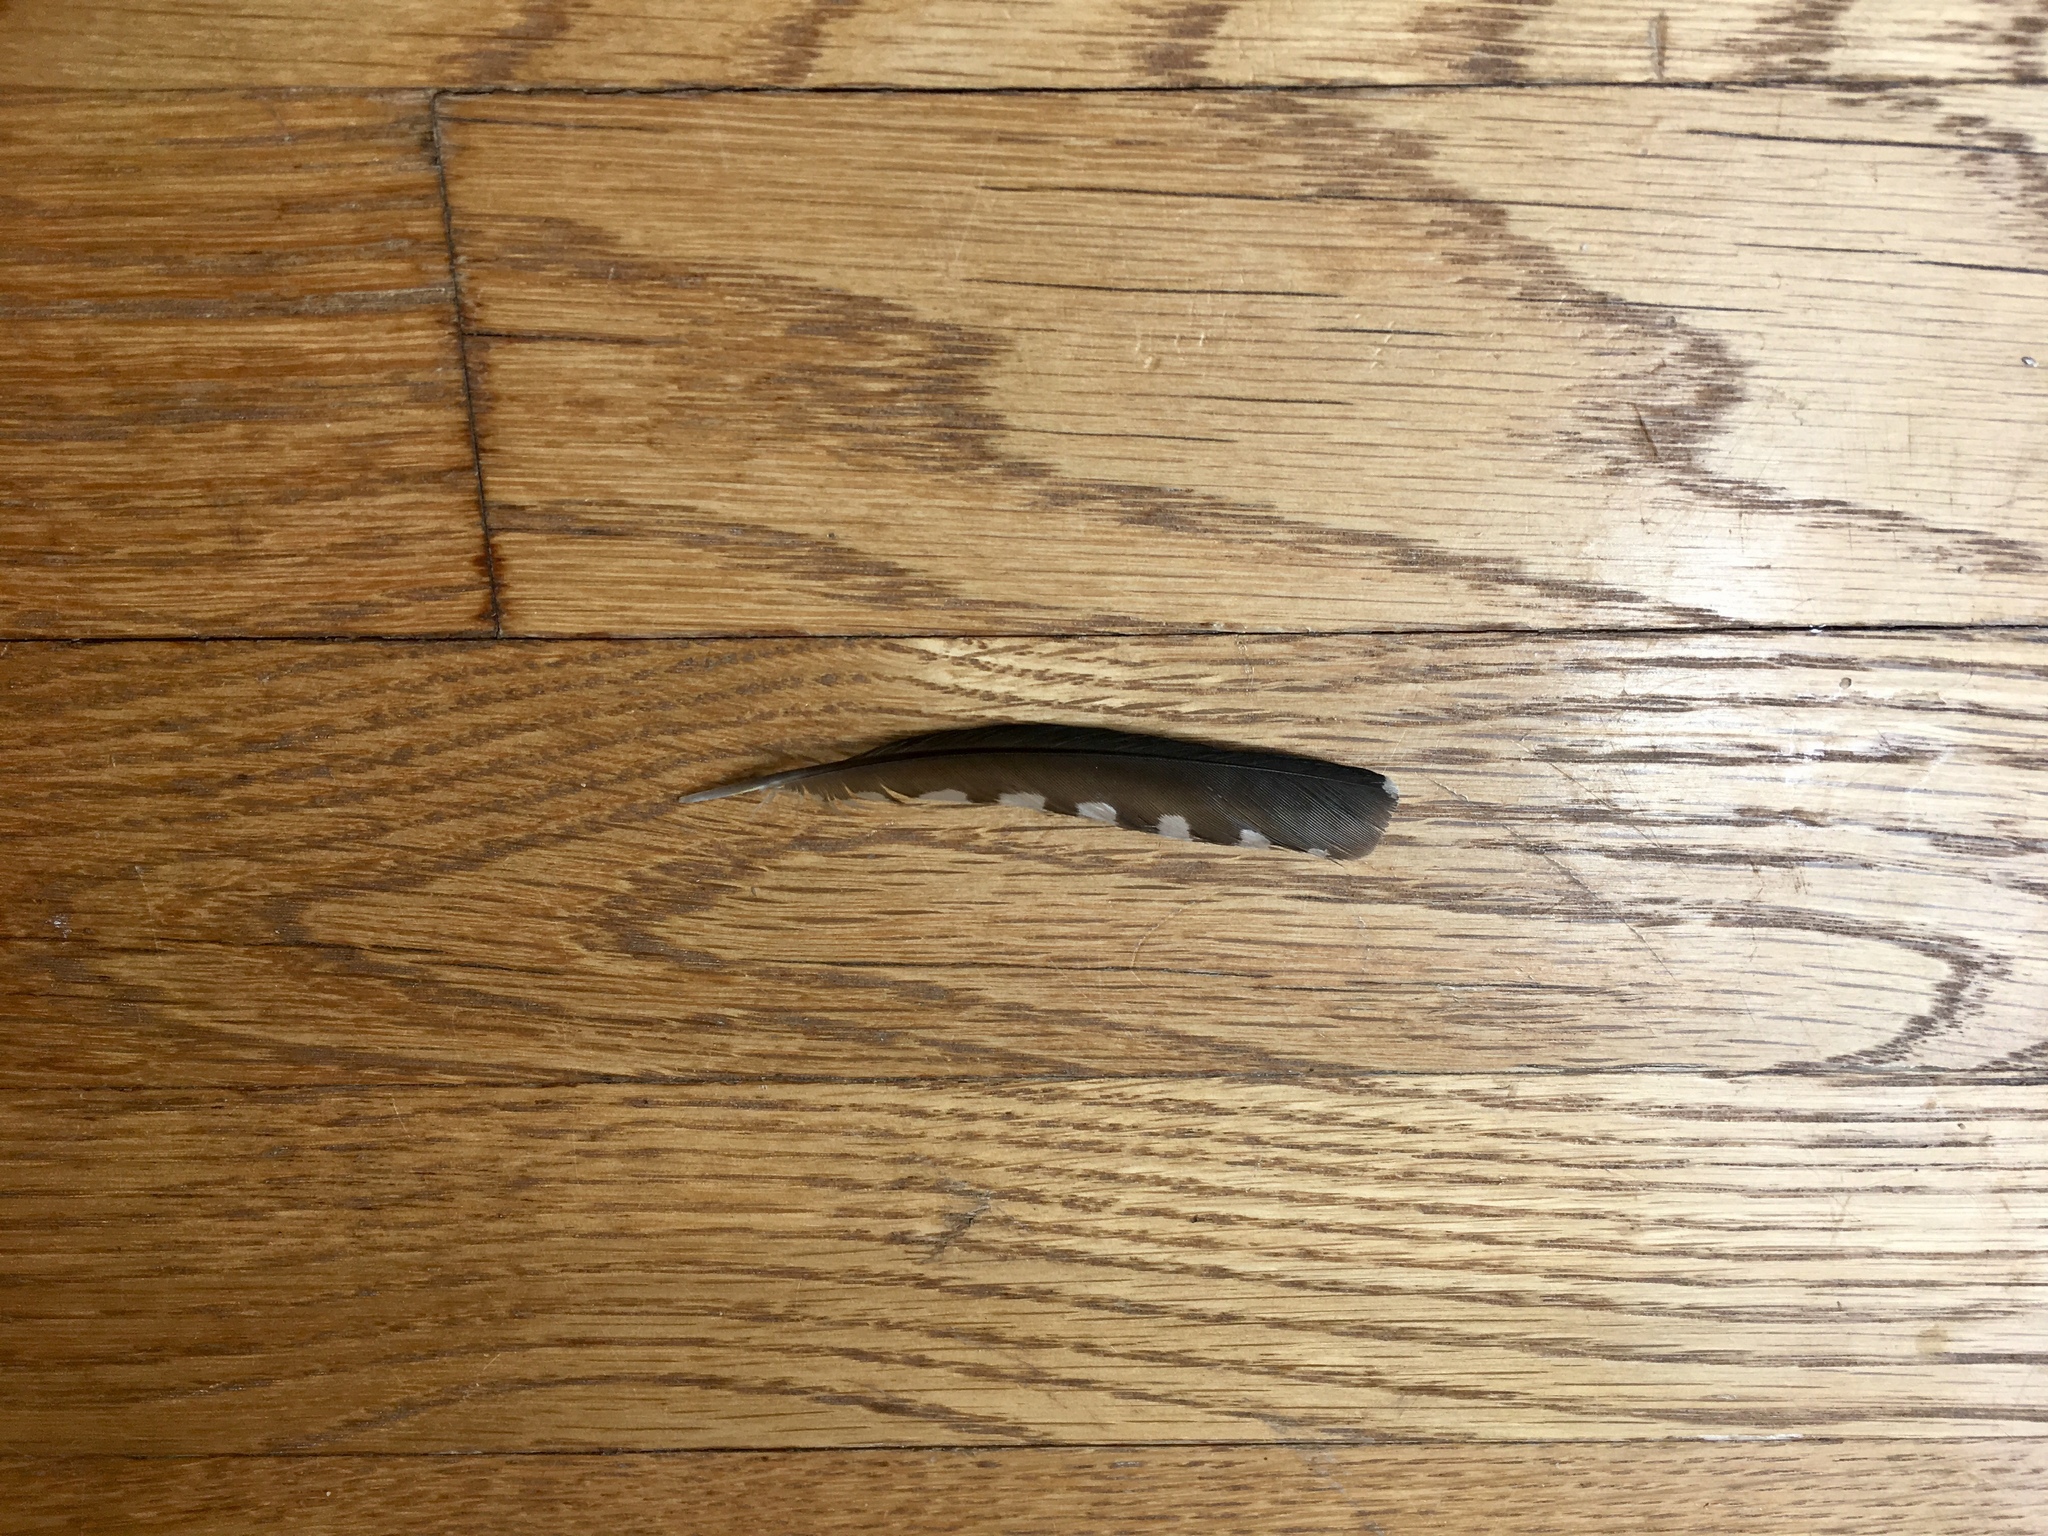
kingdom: Animalia
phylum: Chordata
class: Aves
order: Piciformes
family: Picidae
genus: Melanerpes
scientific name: Melanerpes carolinus
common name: Red-bellied woodpecker
